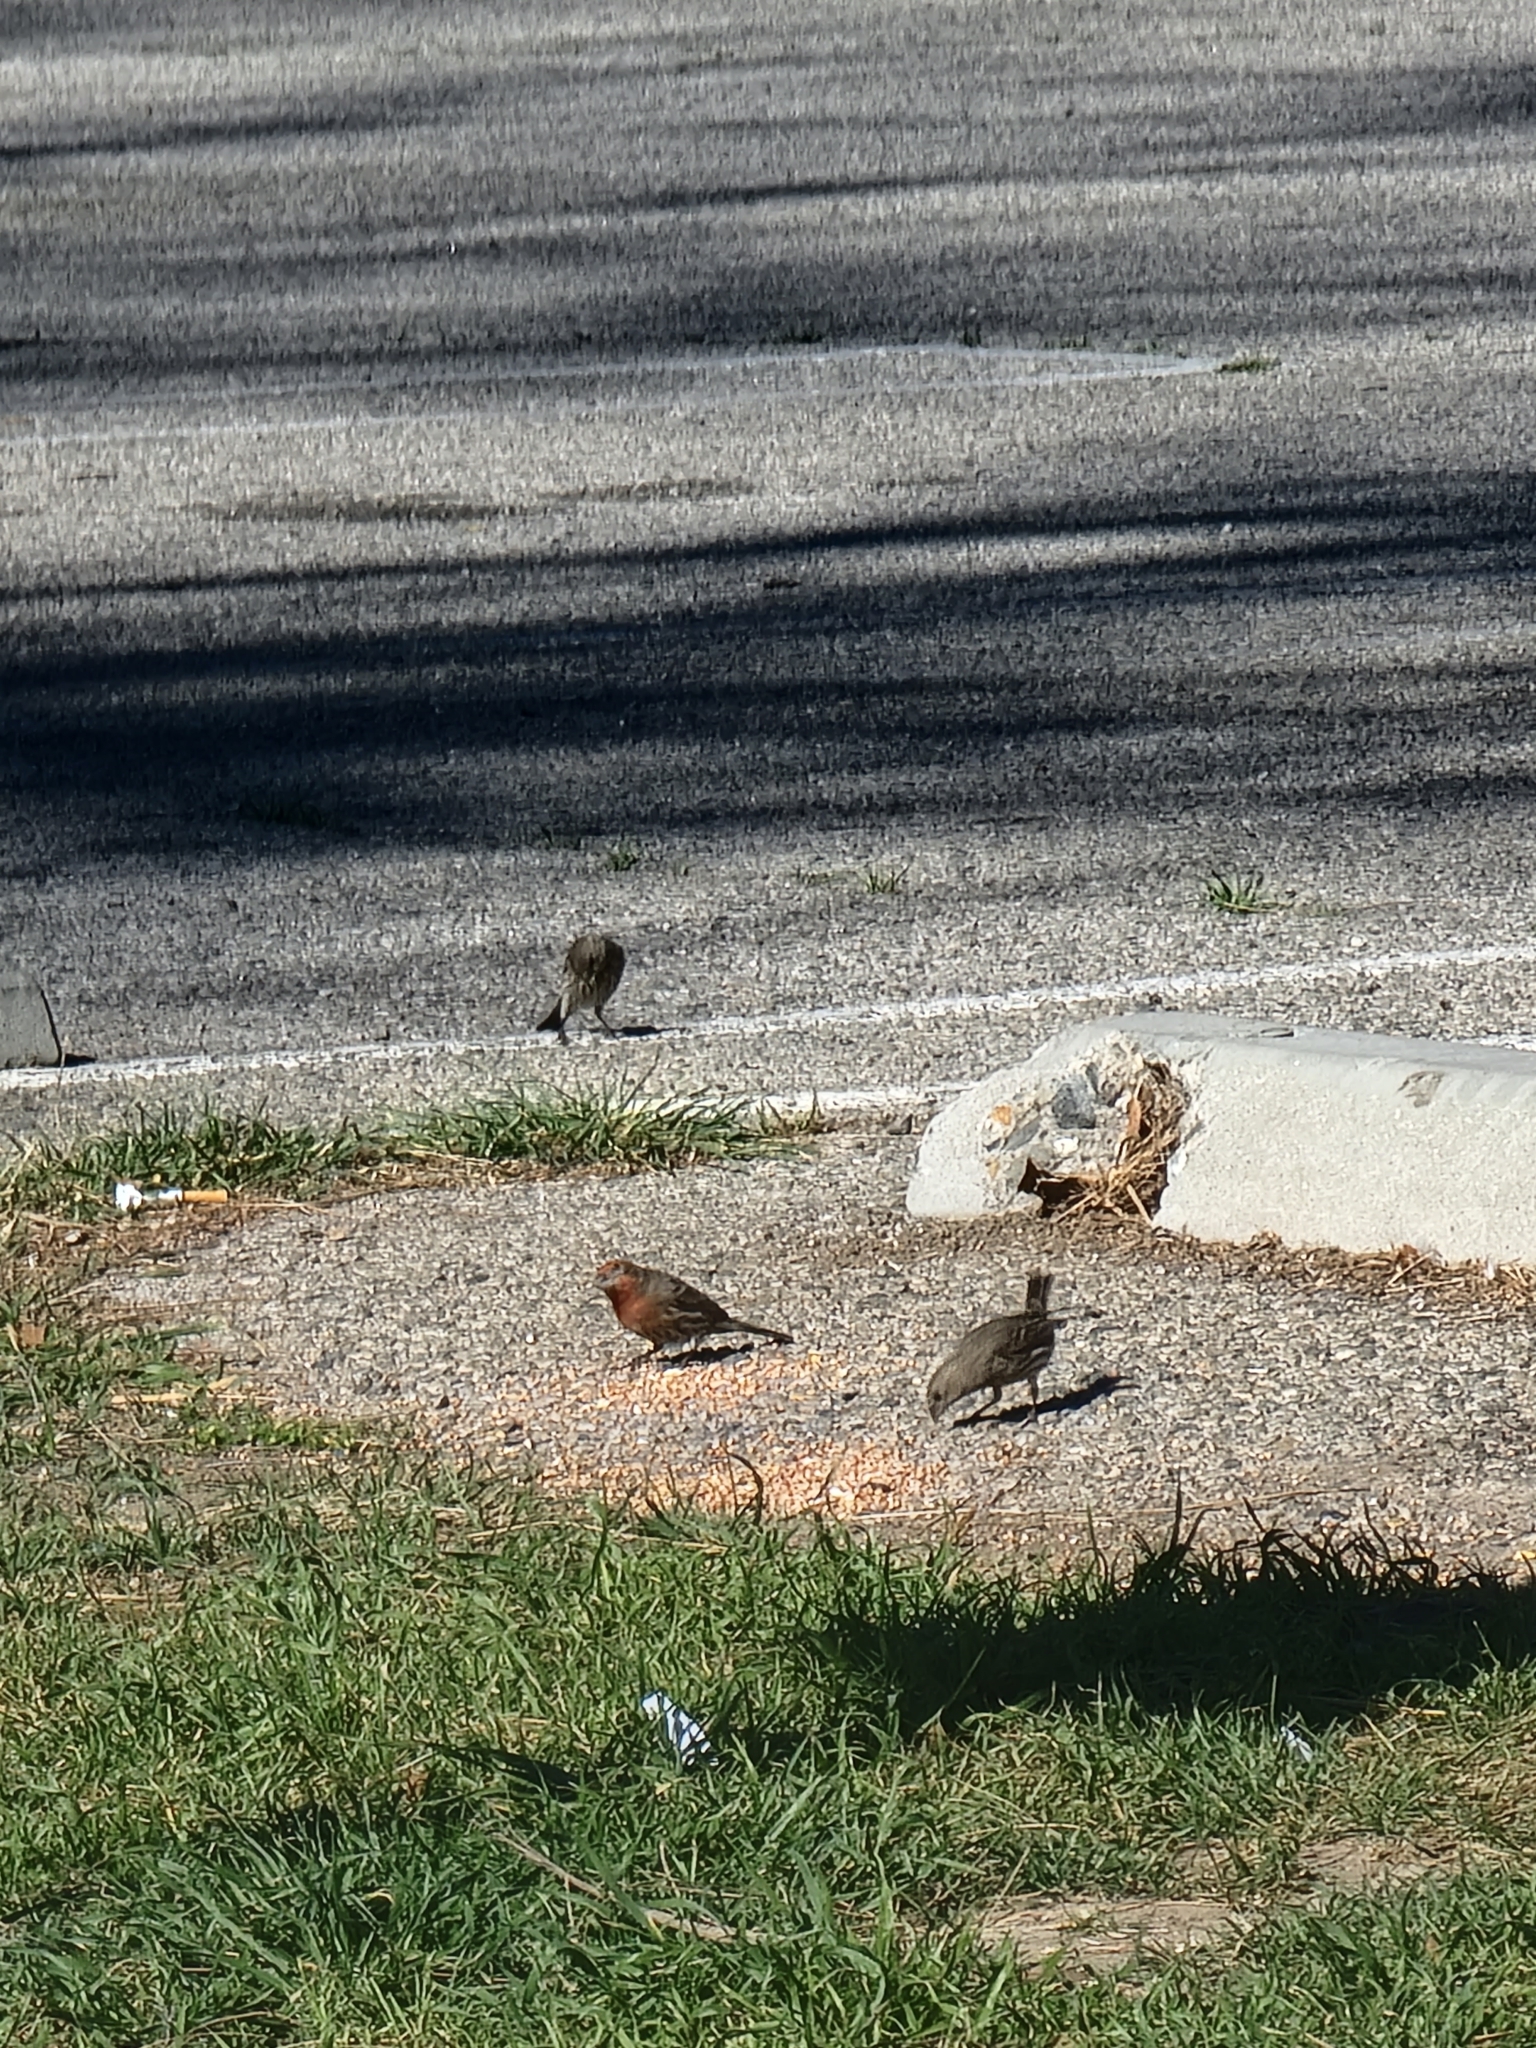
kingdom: Animalia
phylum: Chordata
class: Aves
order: Passeriformes
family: Fringillidae
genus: Haemorhous
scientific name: Haemorhous mexicanus
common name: House finch
